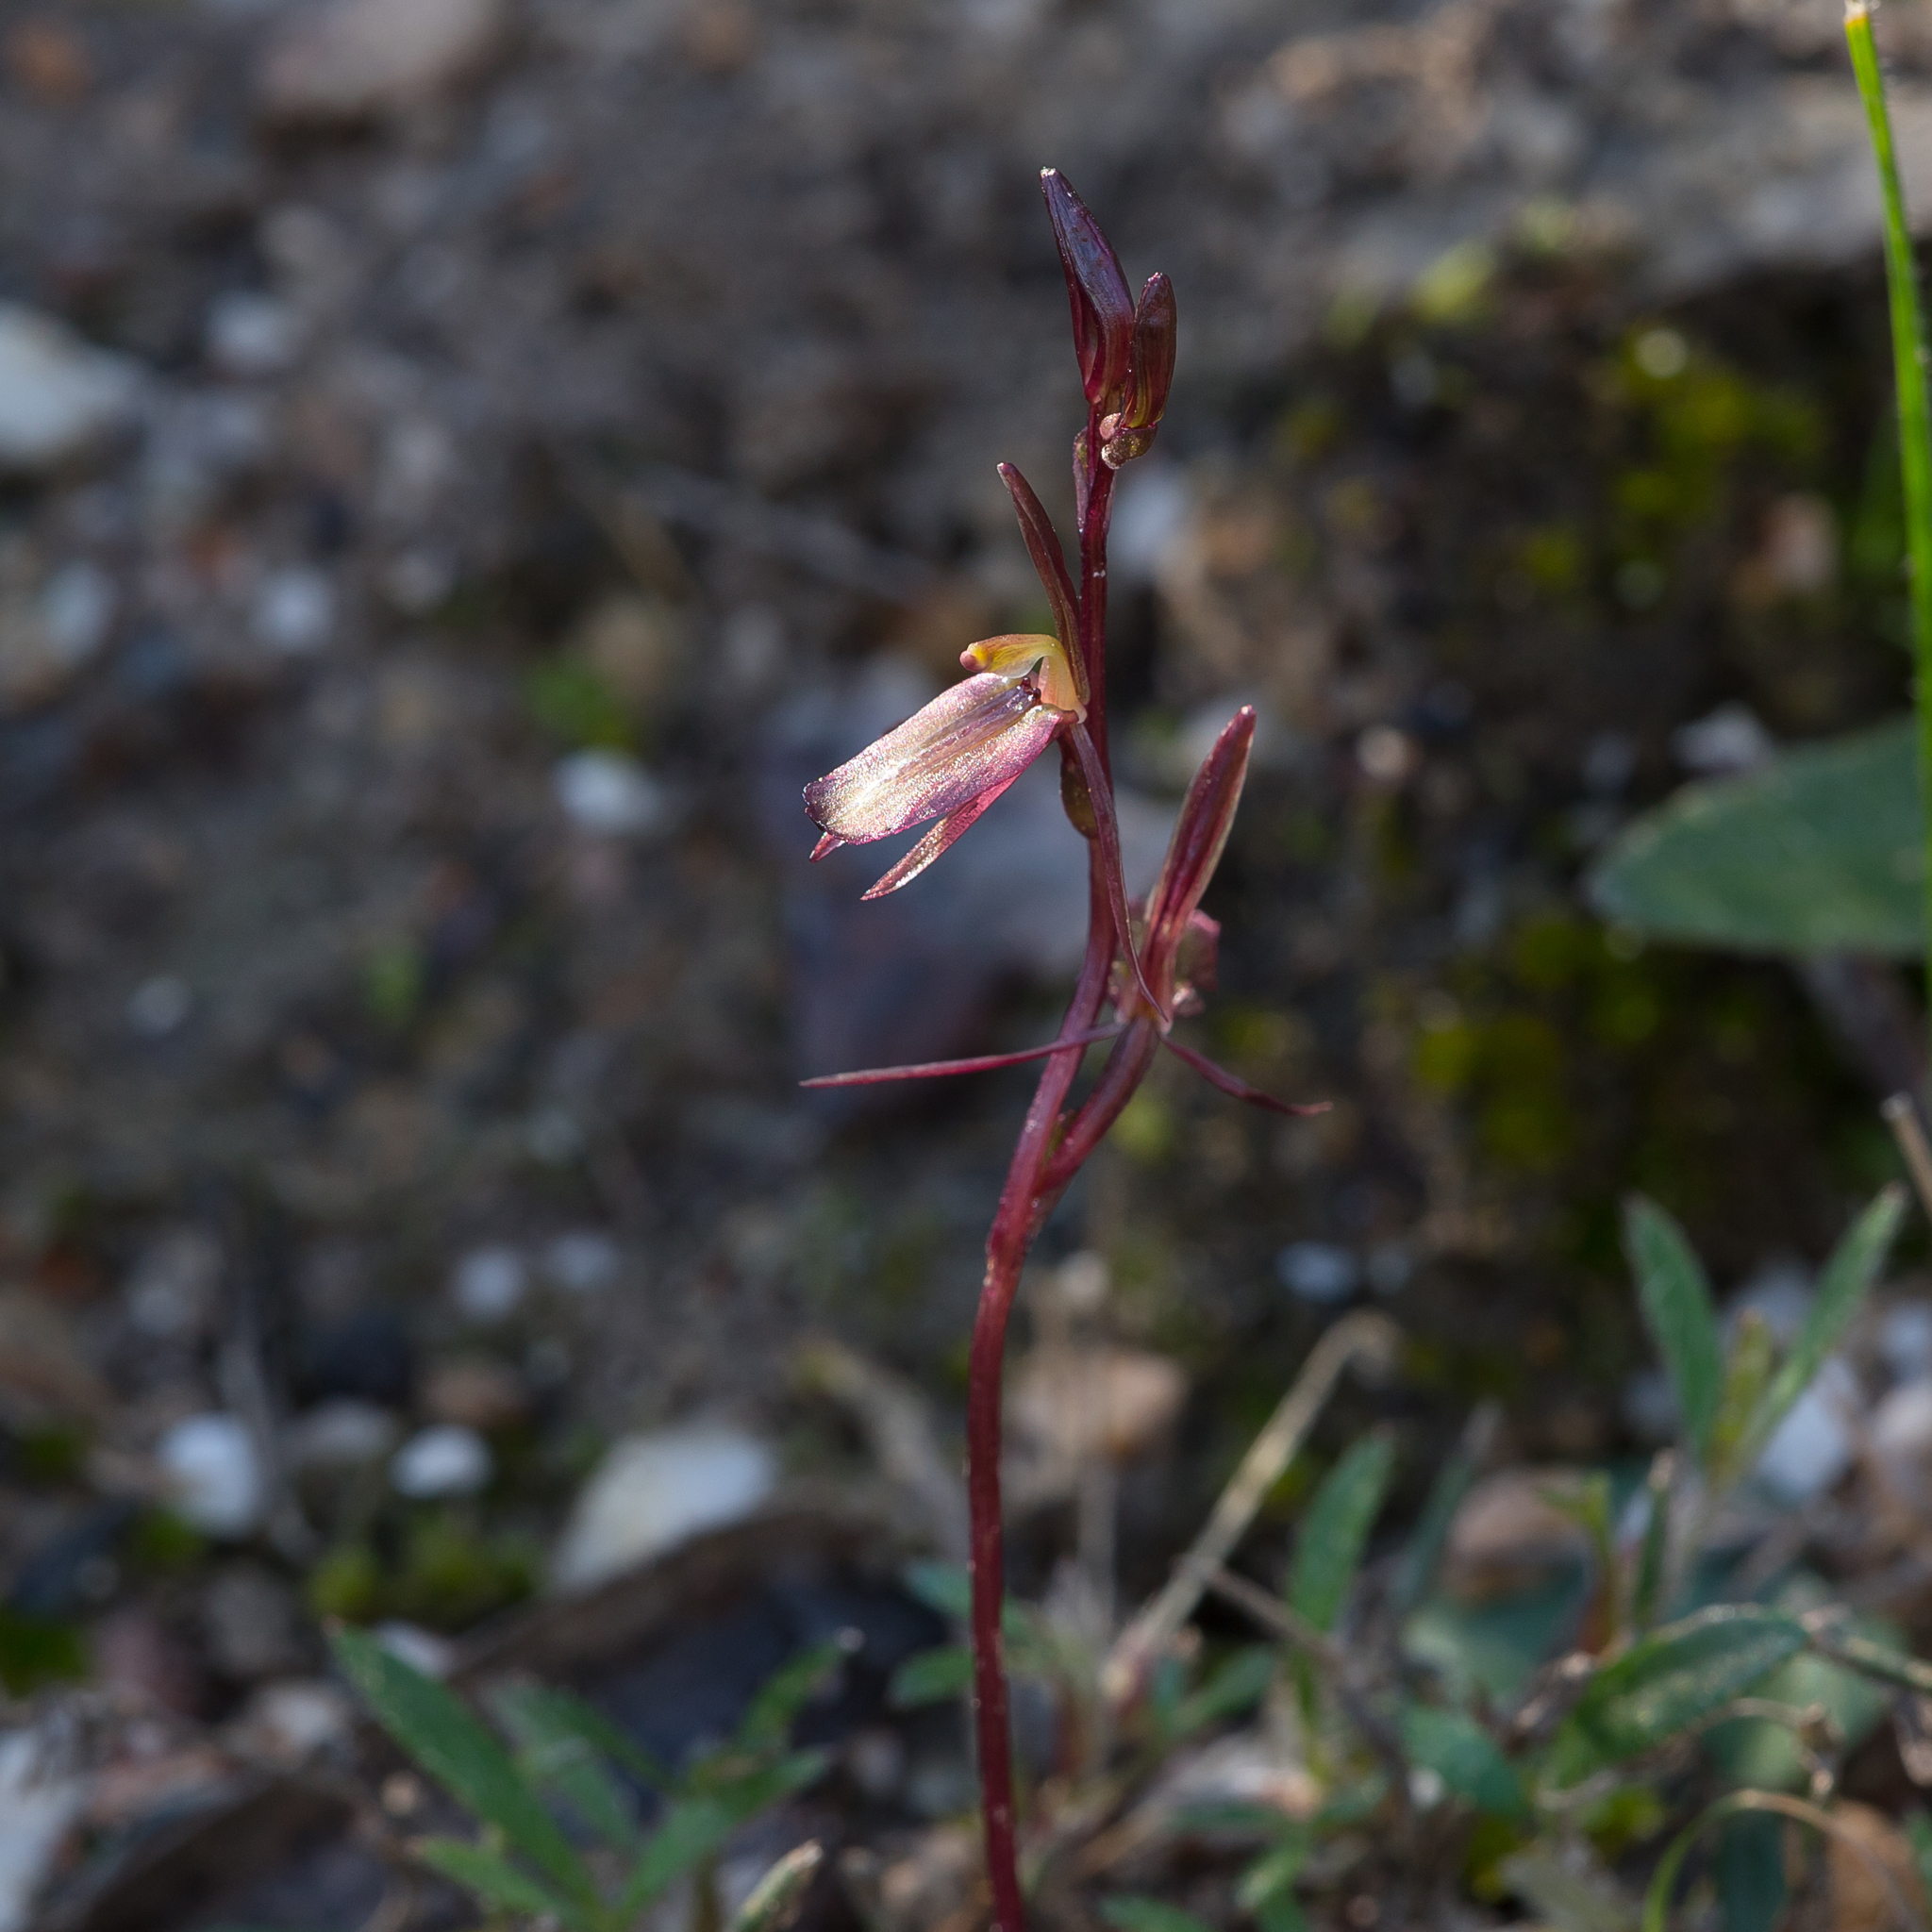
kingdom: Plantae
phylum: Tracheophyta
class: Liliopsida
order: Asparagales
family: Orchidaceae
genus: Cyrtostylis
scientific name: Cyrtostylis reniformis
